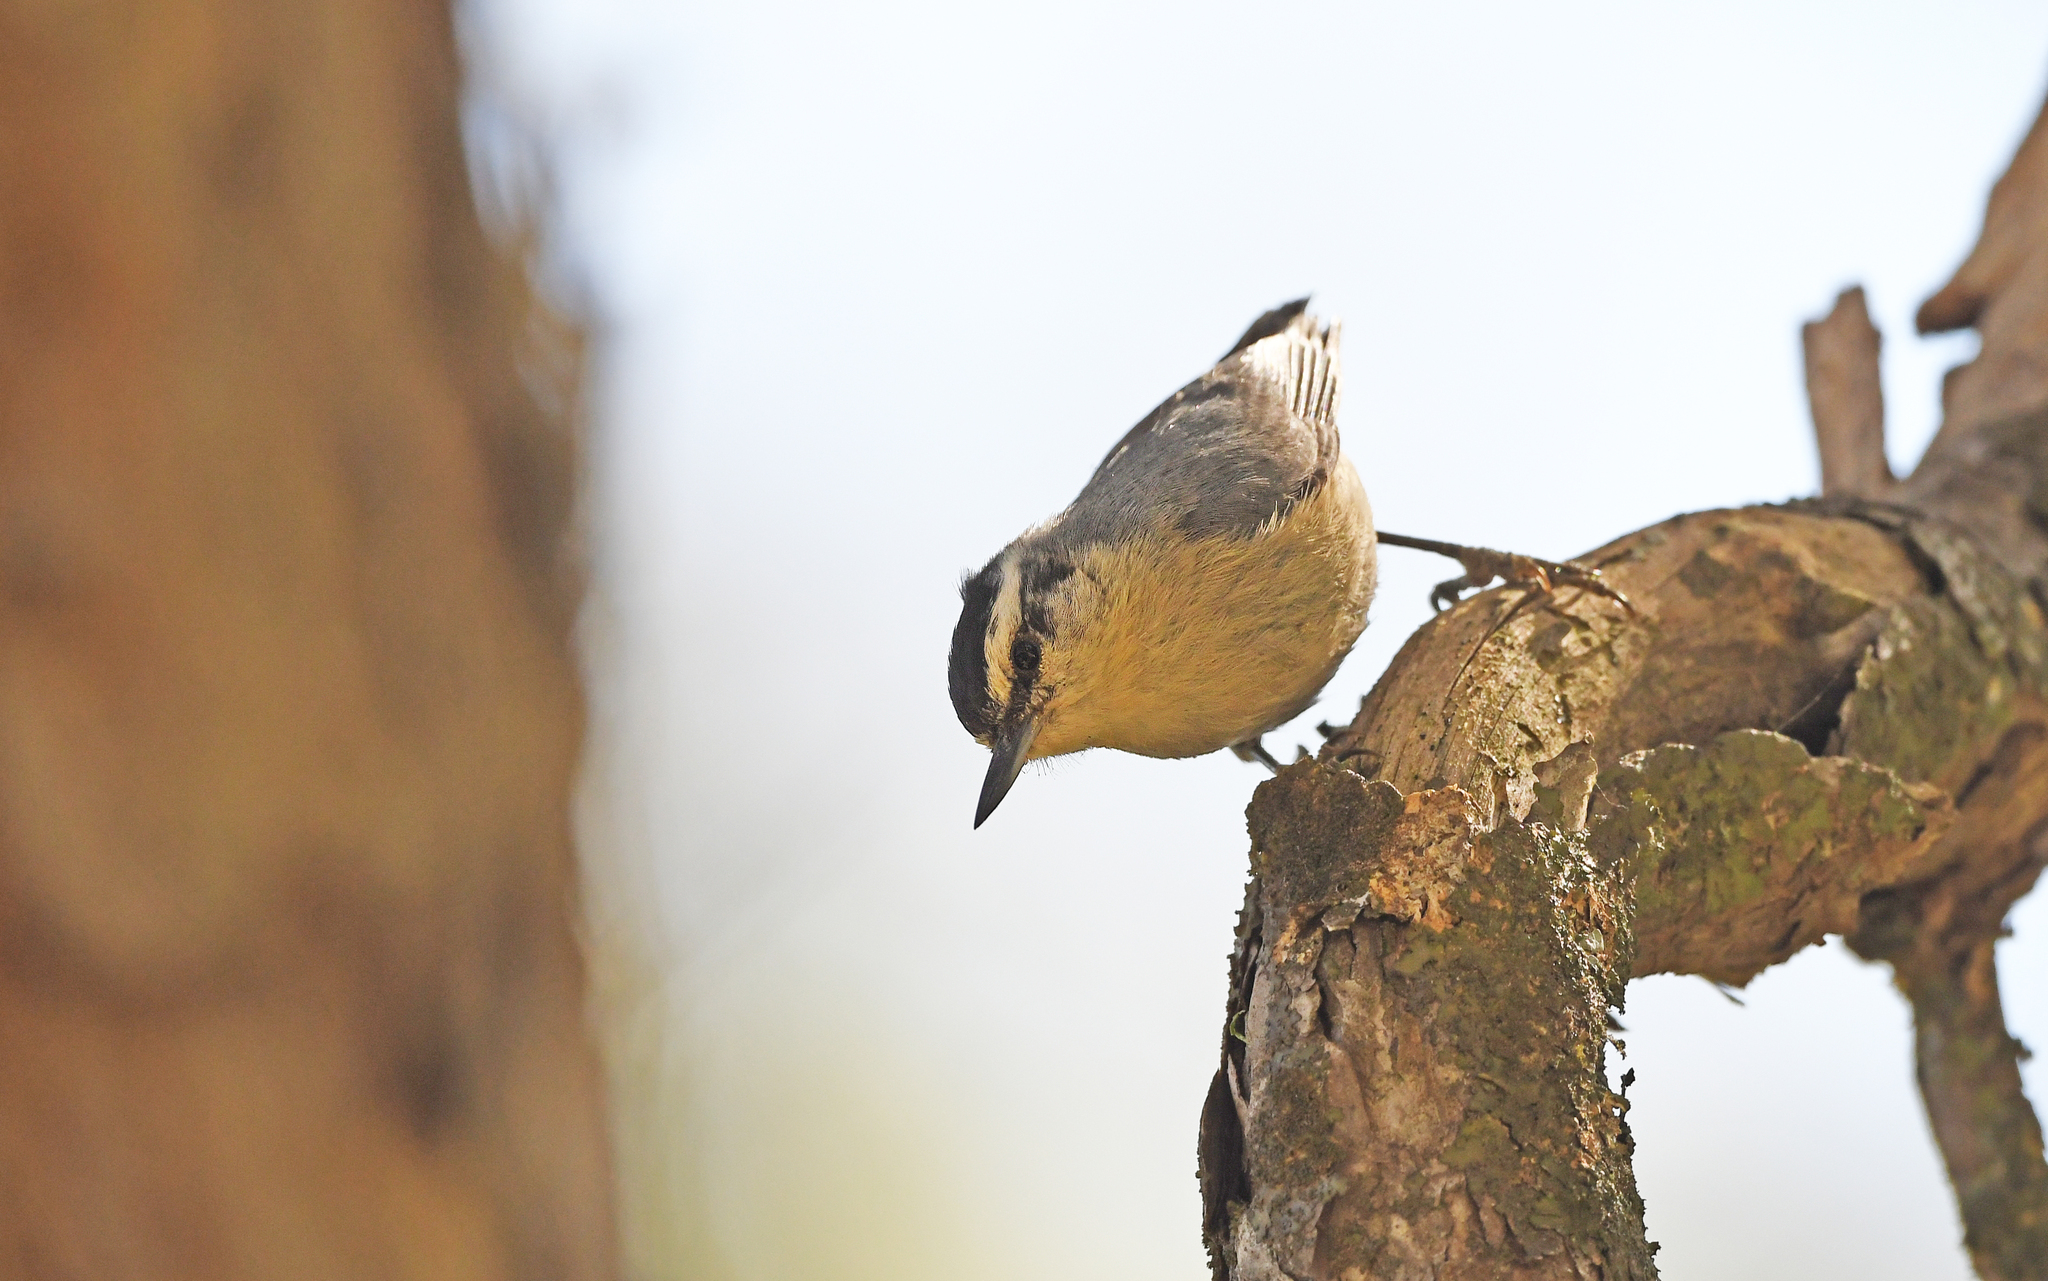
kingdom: Animalia
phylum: Chordata
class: Aves
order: Passeriformes
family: Sittidae
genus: Sitta
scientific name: Sitta whiteheadi
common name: Corsican nuthatch
